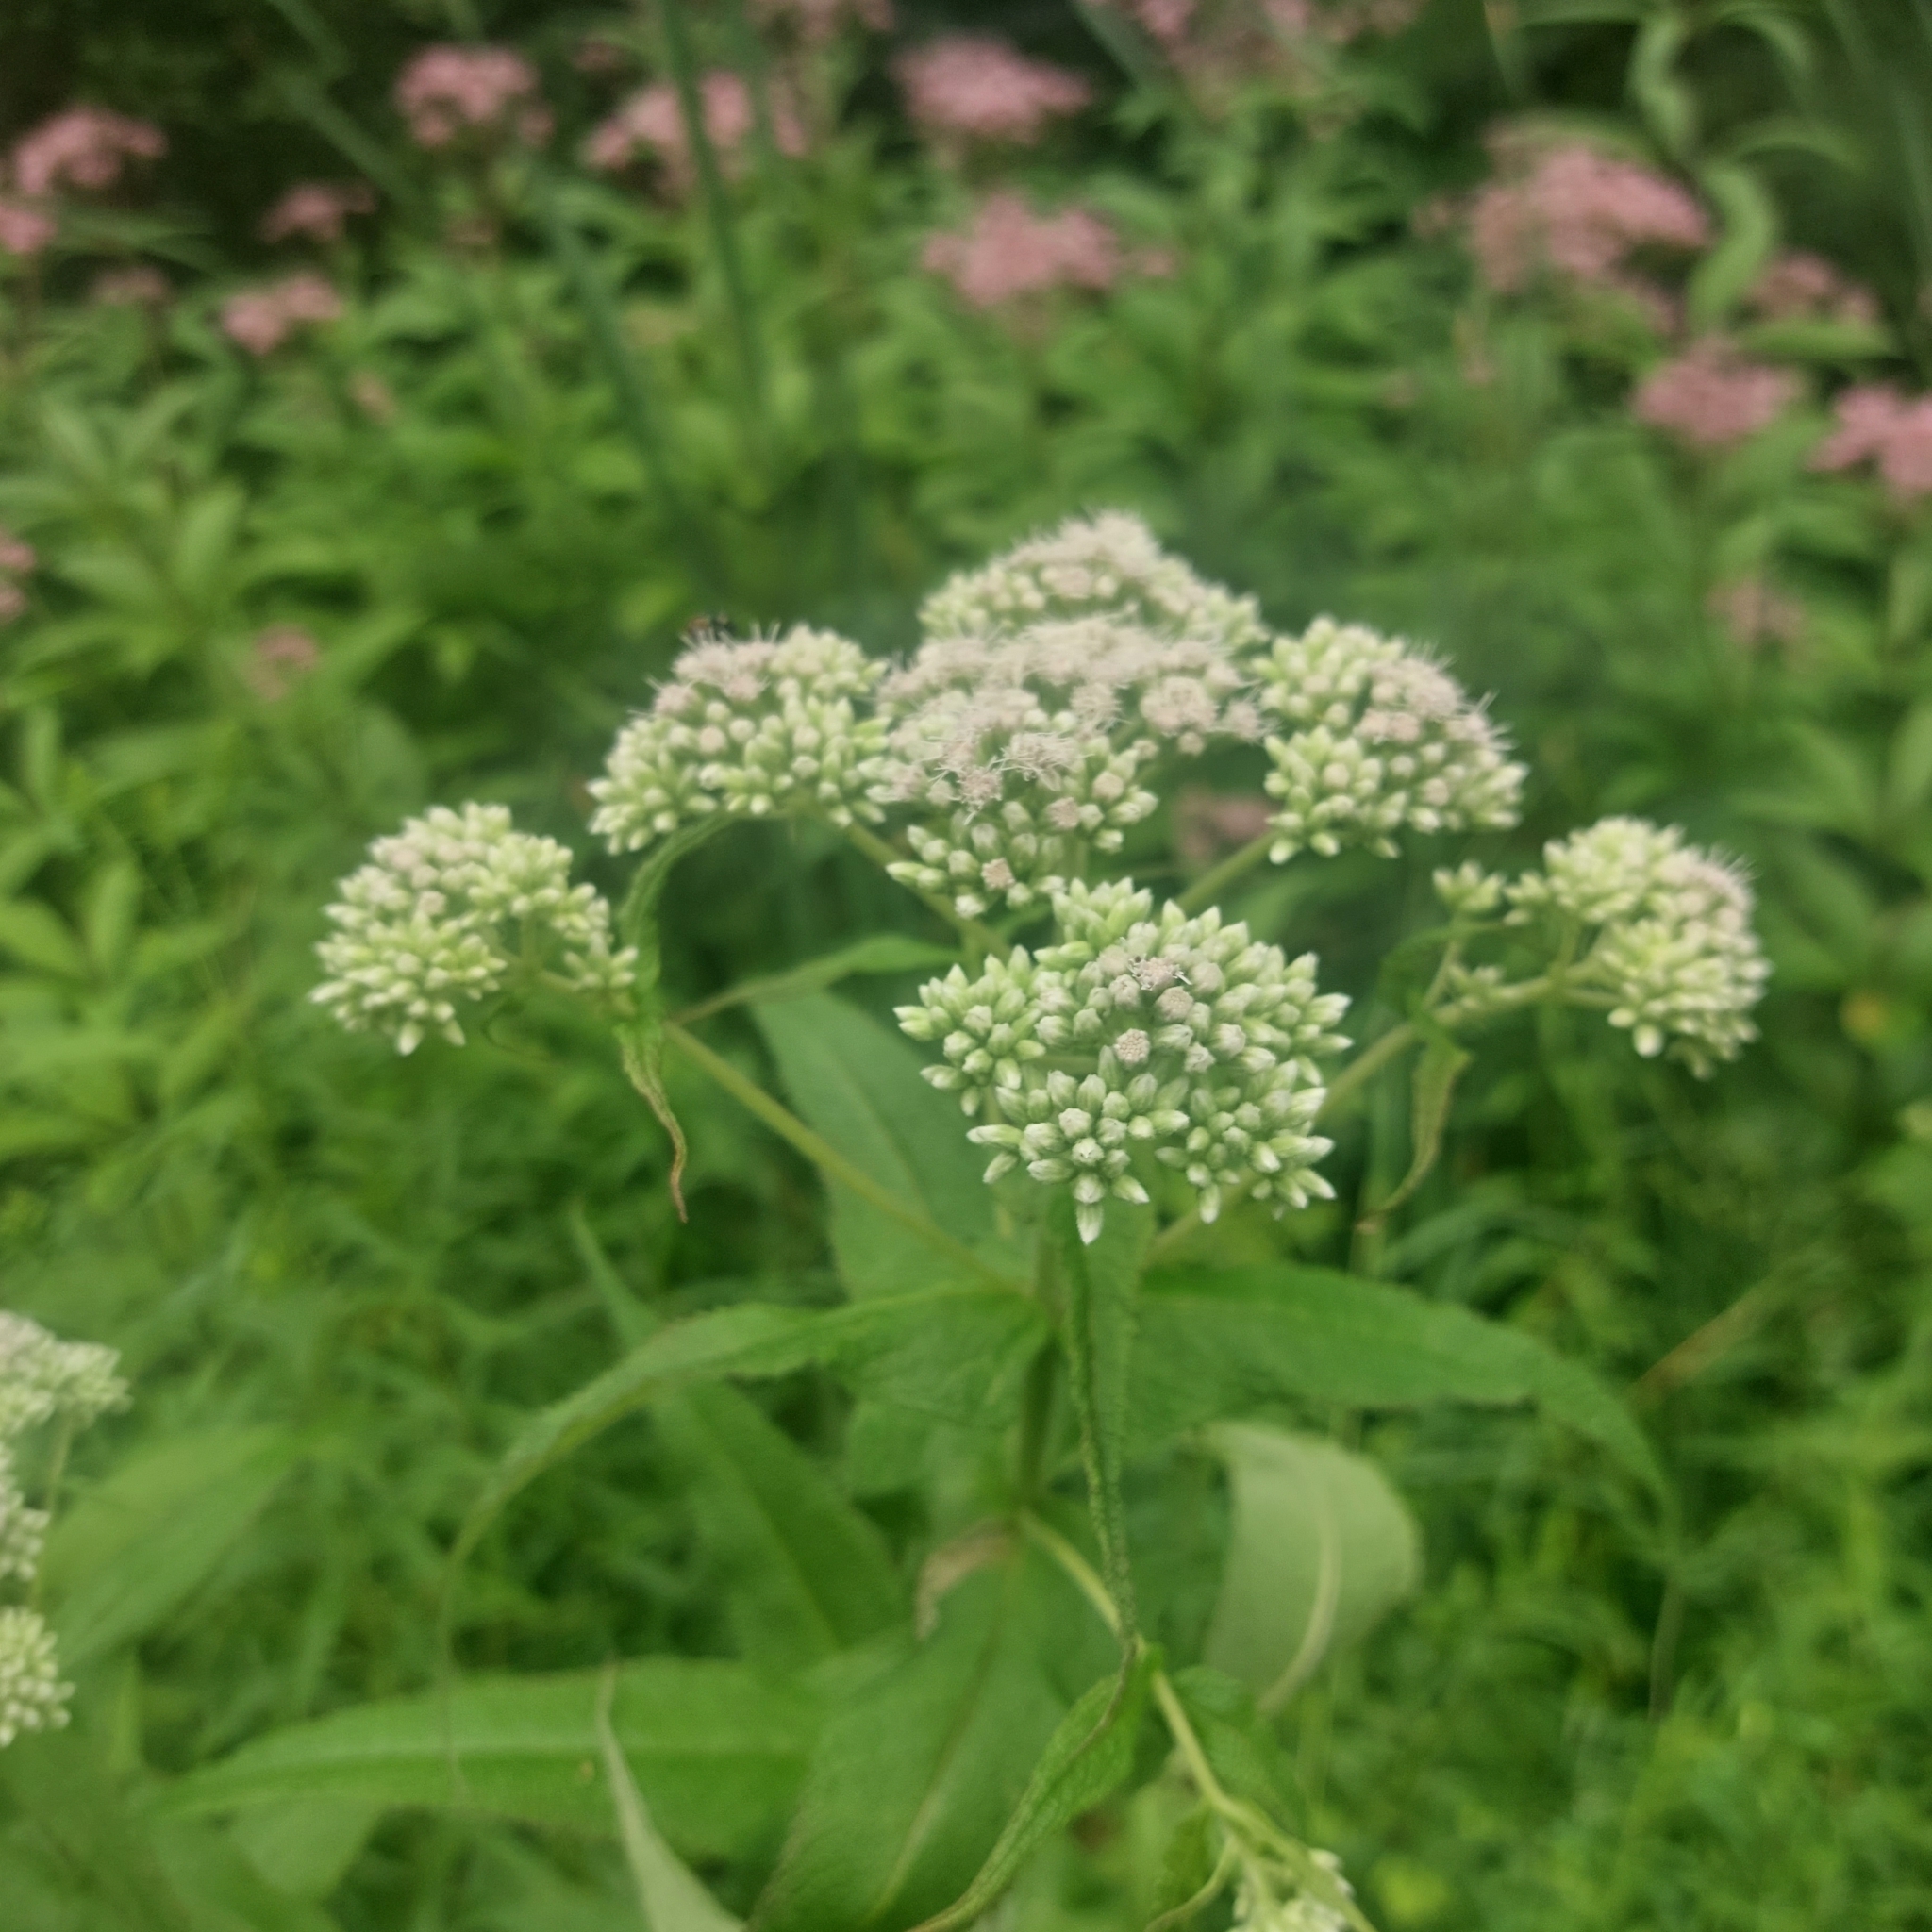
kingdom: Plantae
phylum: Tracheophyta
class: Magnoliopsida
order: Asterales
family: Asteraceae
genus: Eupatorium
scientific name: Eupatorium perfoliatum
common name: Boneset
